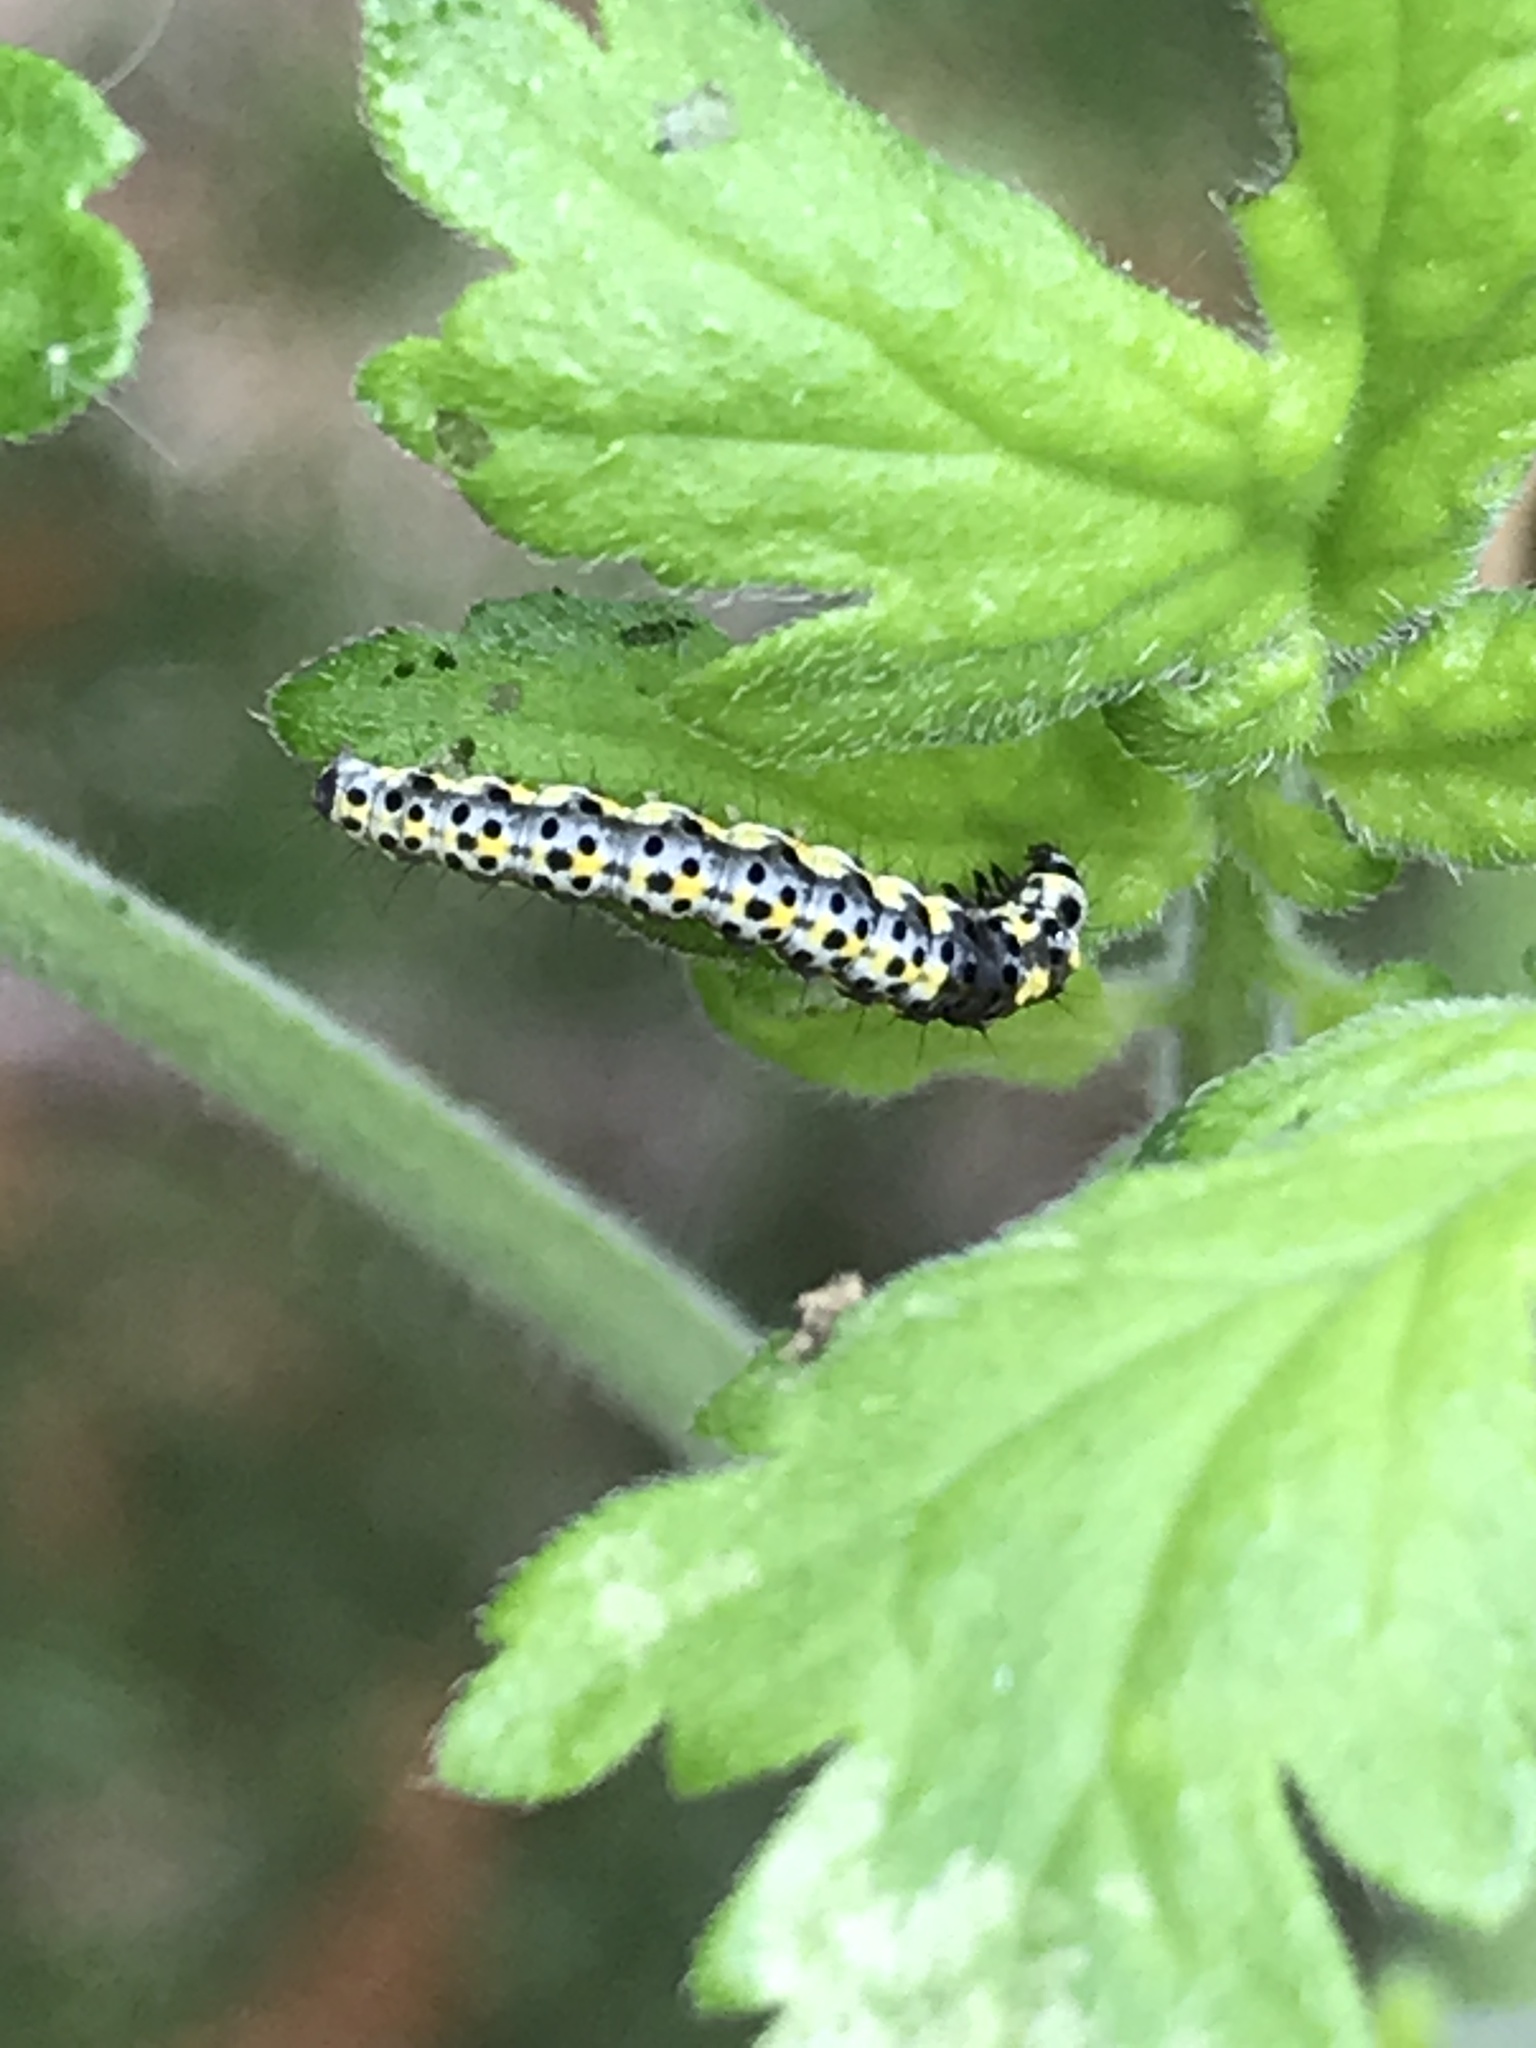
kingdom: Animalia
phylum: Arthropoda
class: Insecta
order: Lepidoptera
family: Ethmiidae
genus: Ethmia
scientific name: Ethmia zelleriella
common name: Zeller's ethmia
